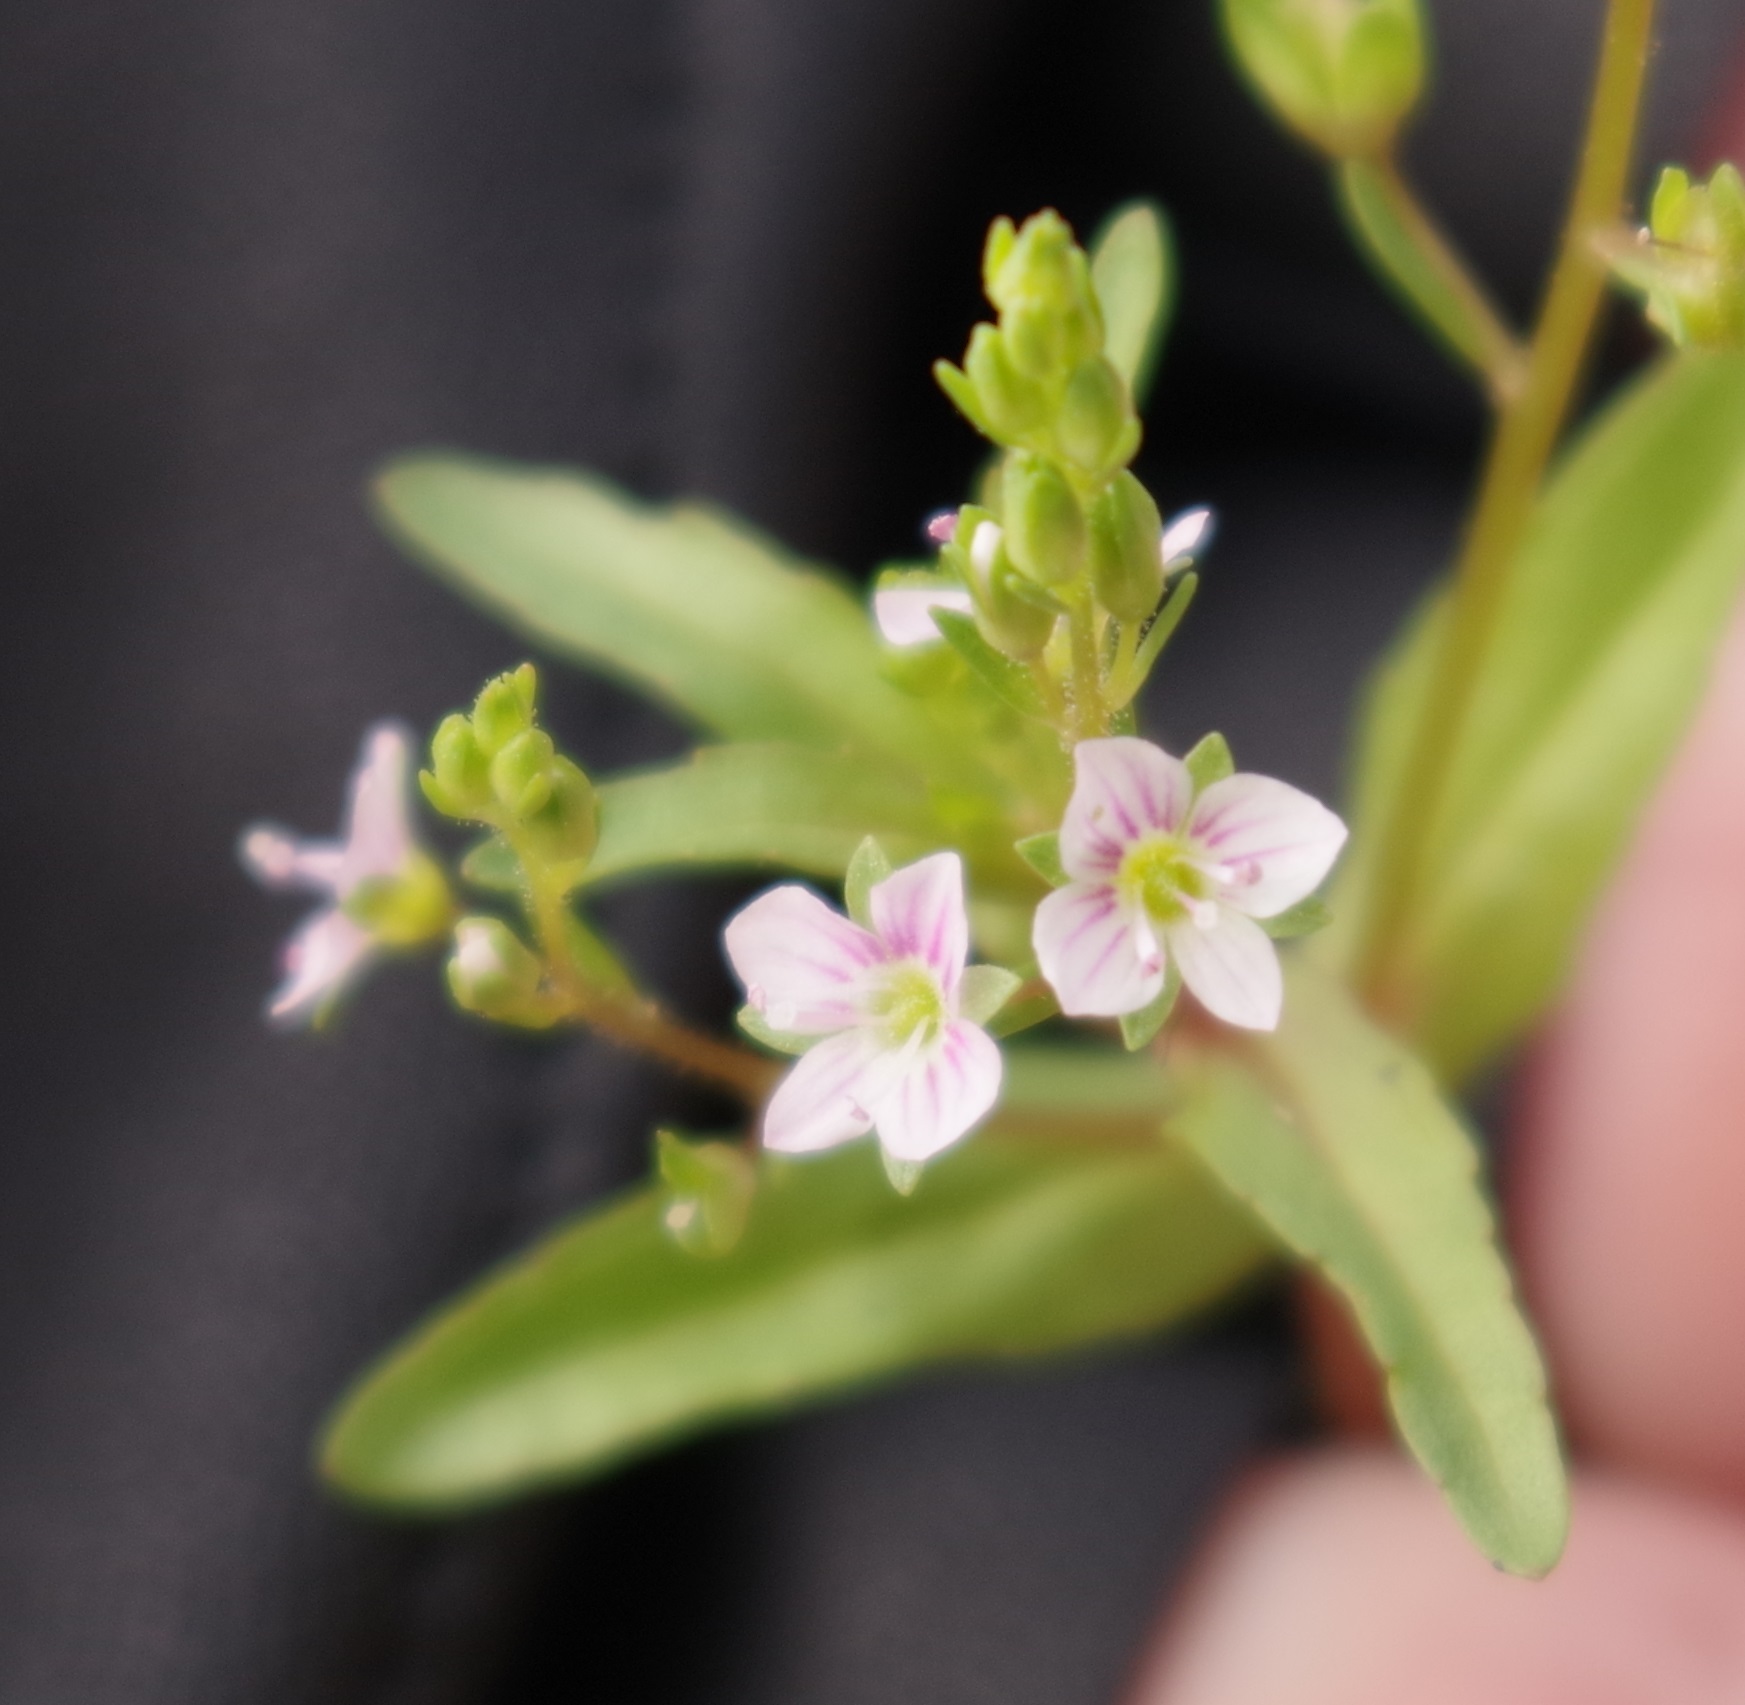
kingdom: Plantae
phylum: Tracheophyta
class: Magnoliopsida
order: Lamiales
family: Plantaginaceae
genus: Veronica
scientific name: Veronica catenata
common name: Pink water-speedwell
